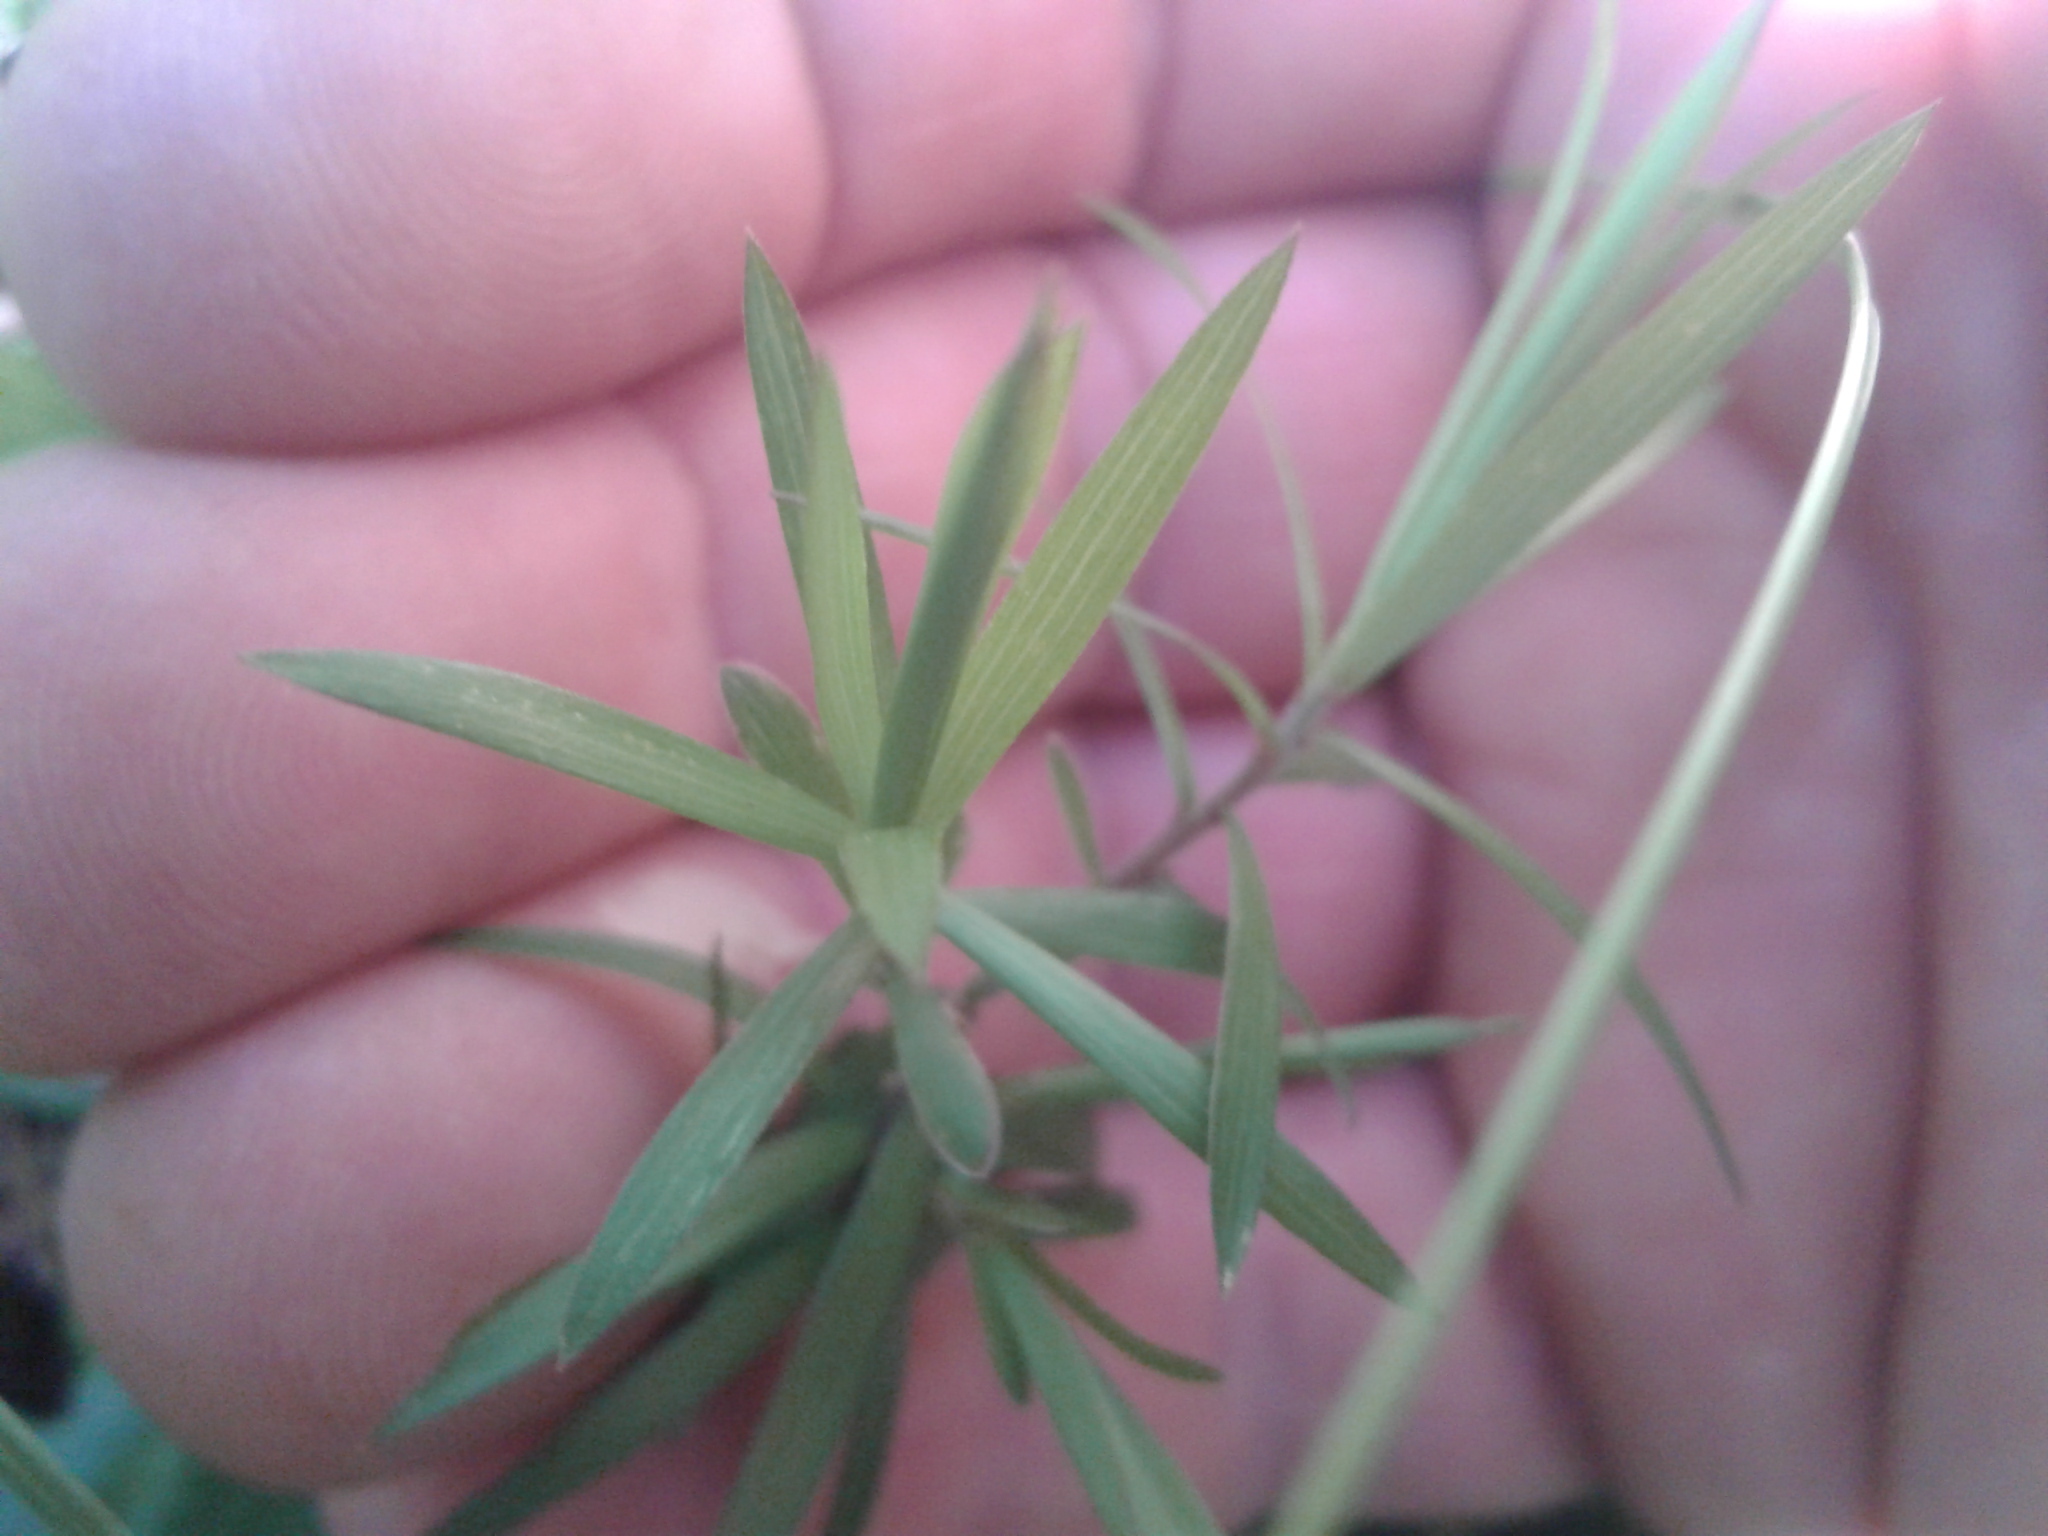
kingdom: Plantae
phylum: Tracheophyta
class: Magnoliopsida
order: Ericales
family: Ericaceae
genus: Leucopogon
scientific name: Leucopogon fasciculatus
